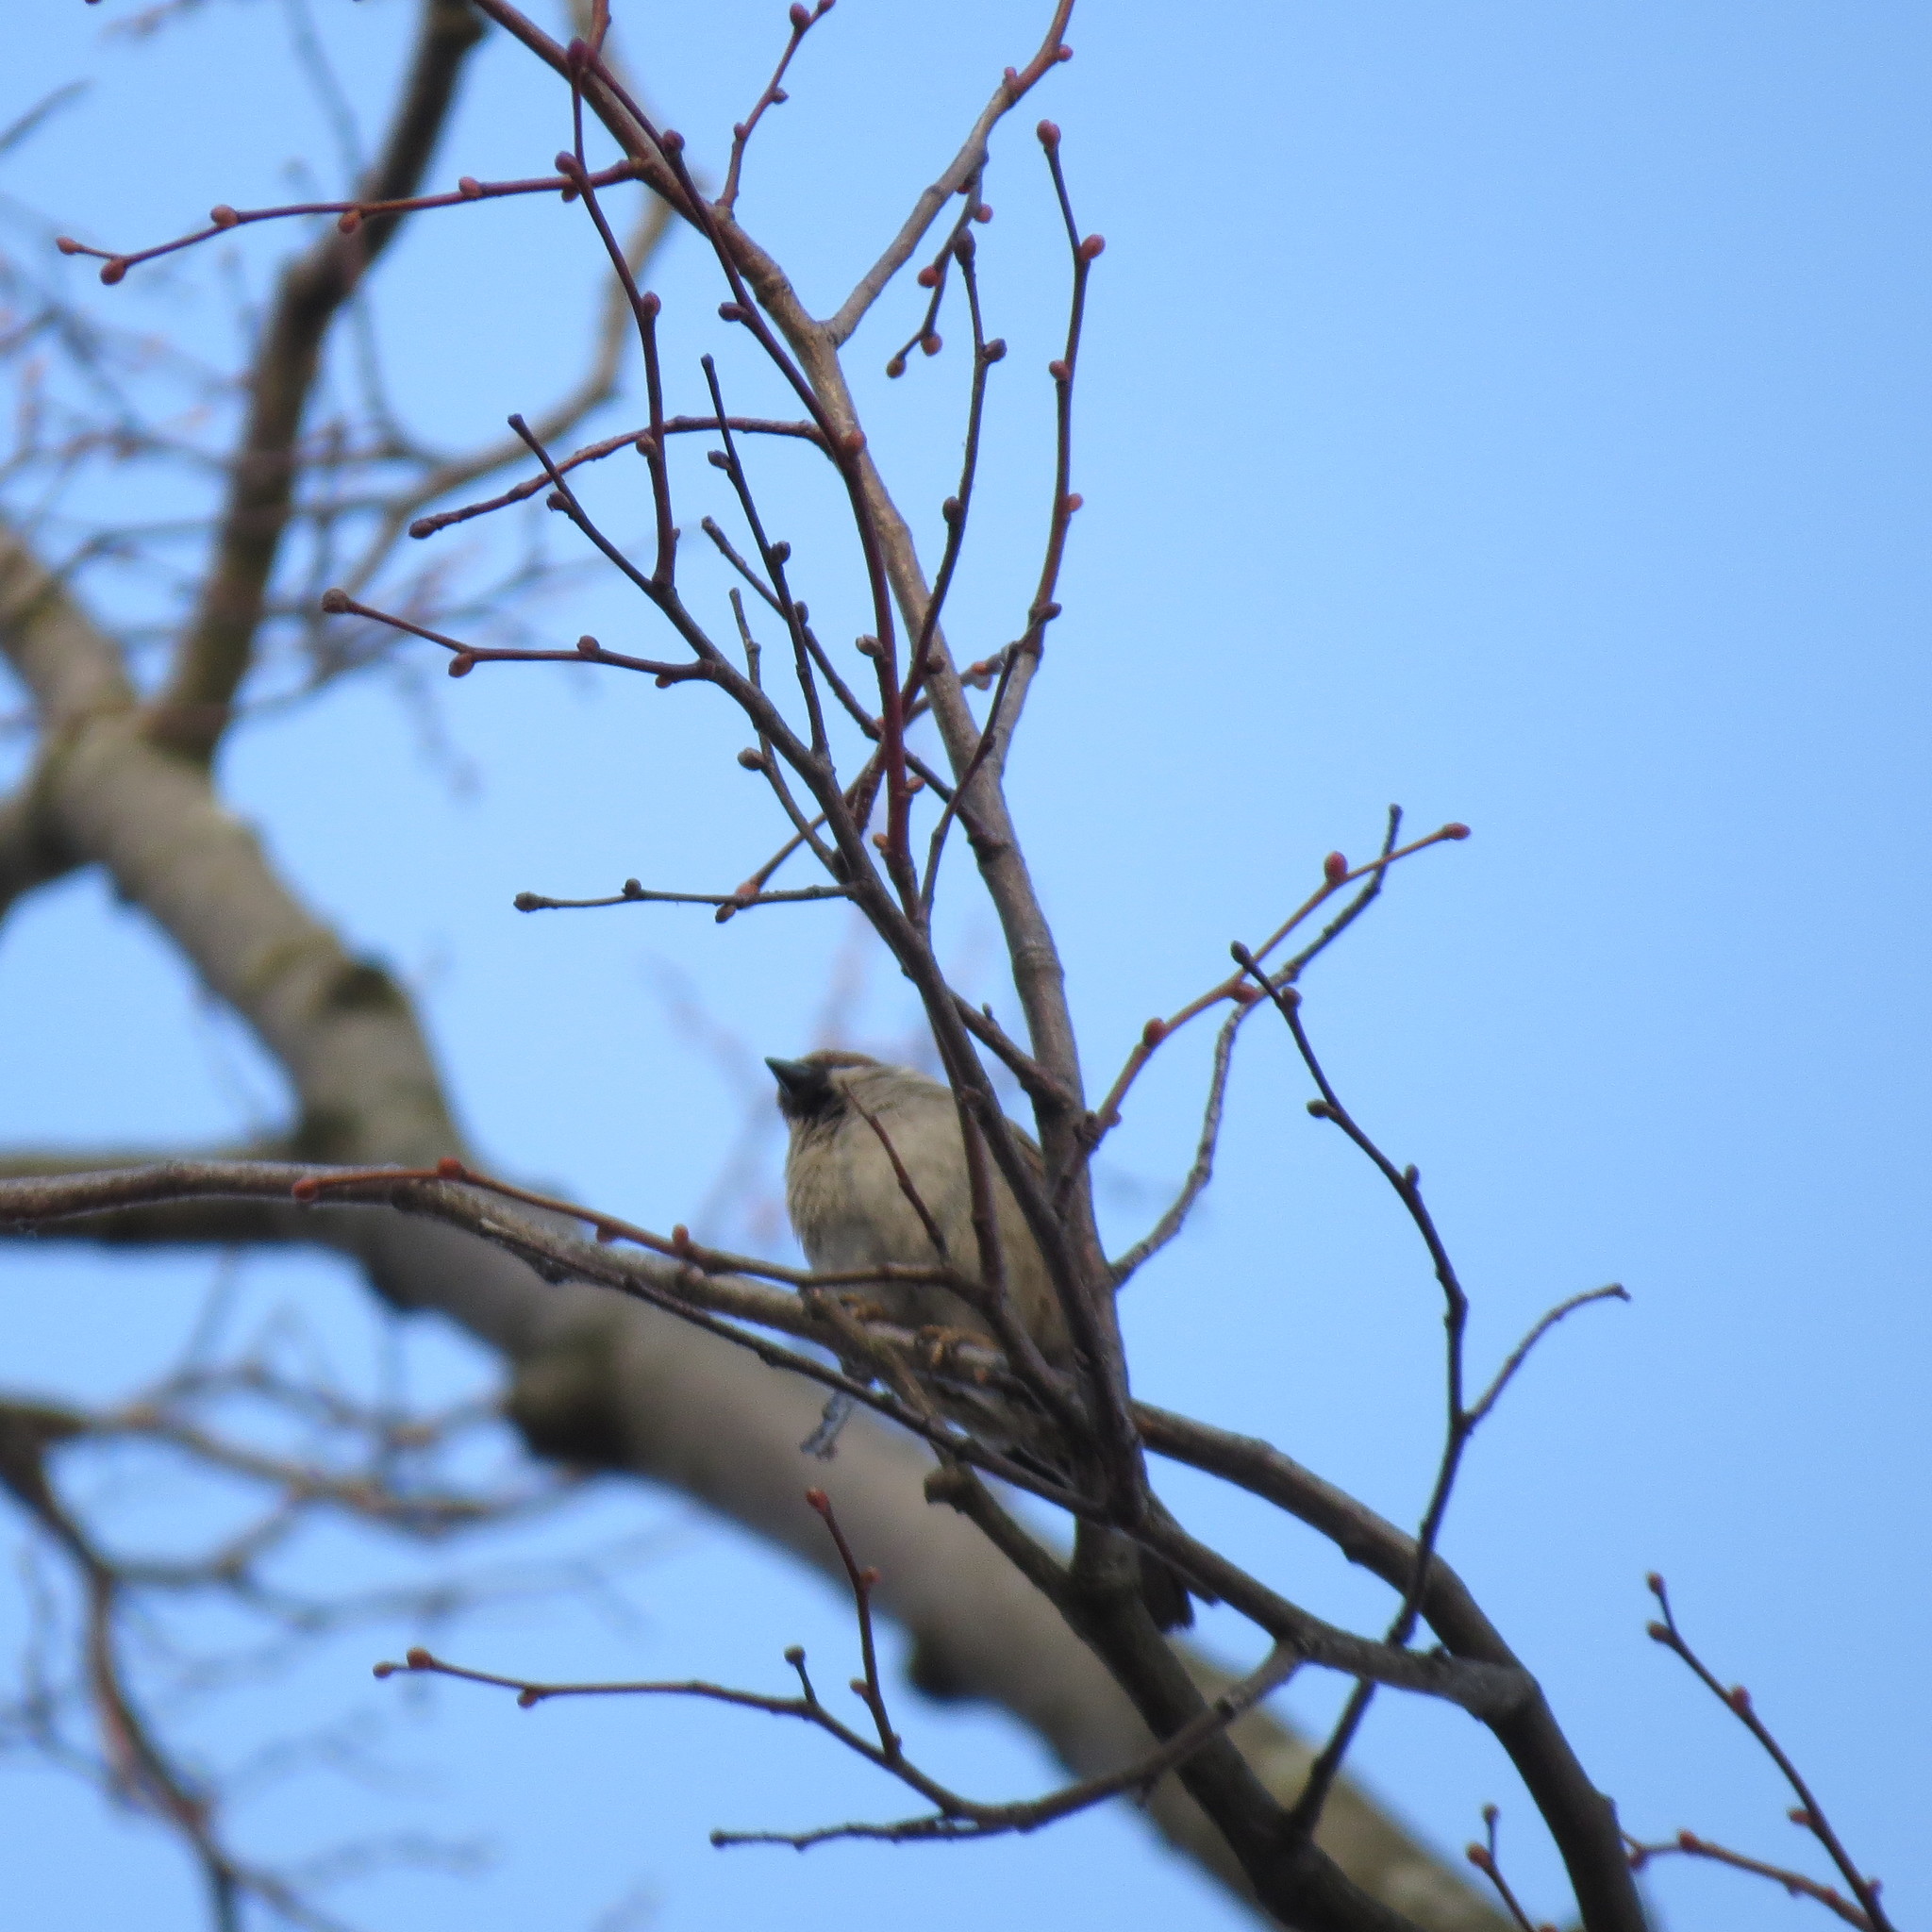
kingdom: Animalia
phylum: Chordata
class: Aves
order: Passeriformes
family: Passeridae
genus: Passer
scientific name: Passer domesticus
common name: House sparrow
